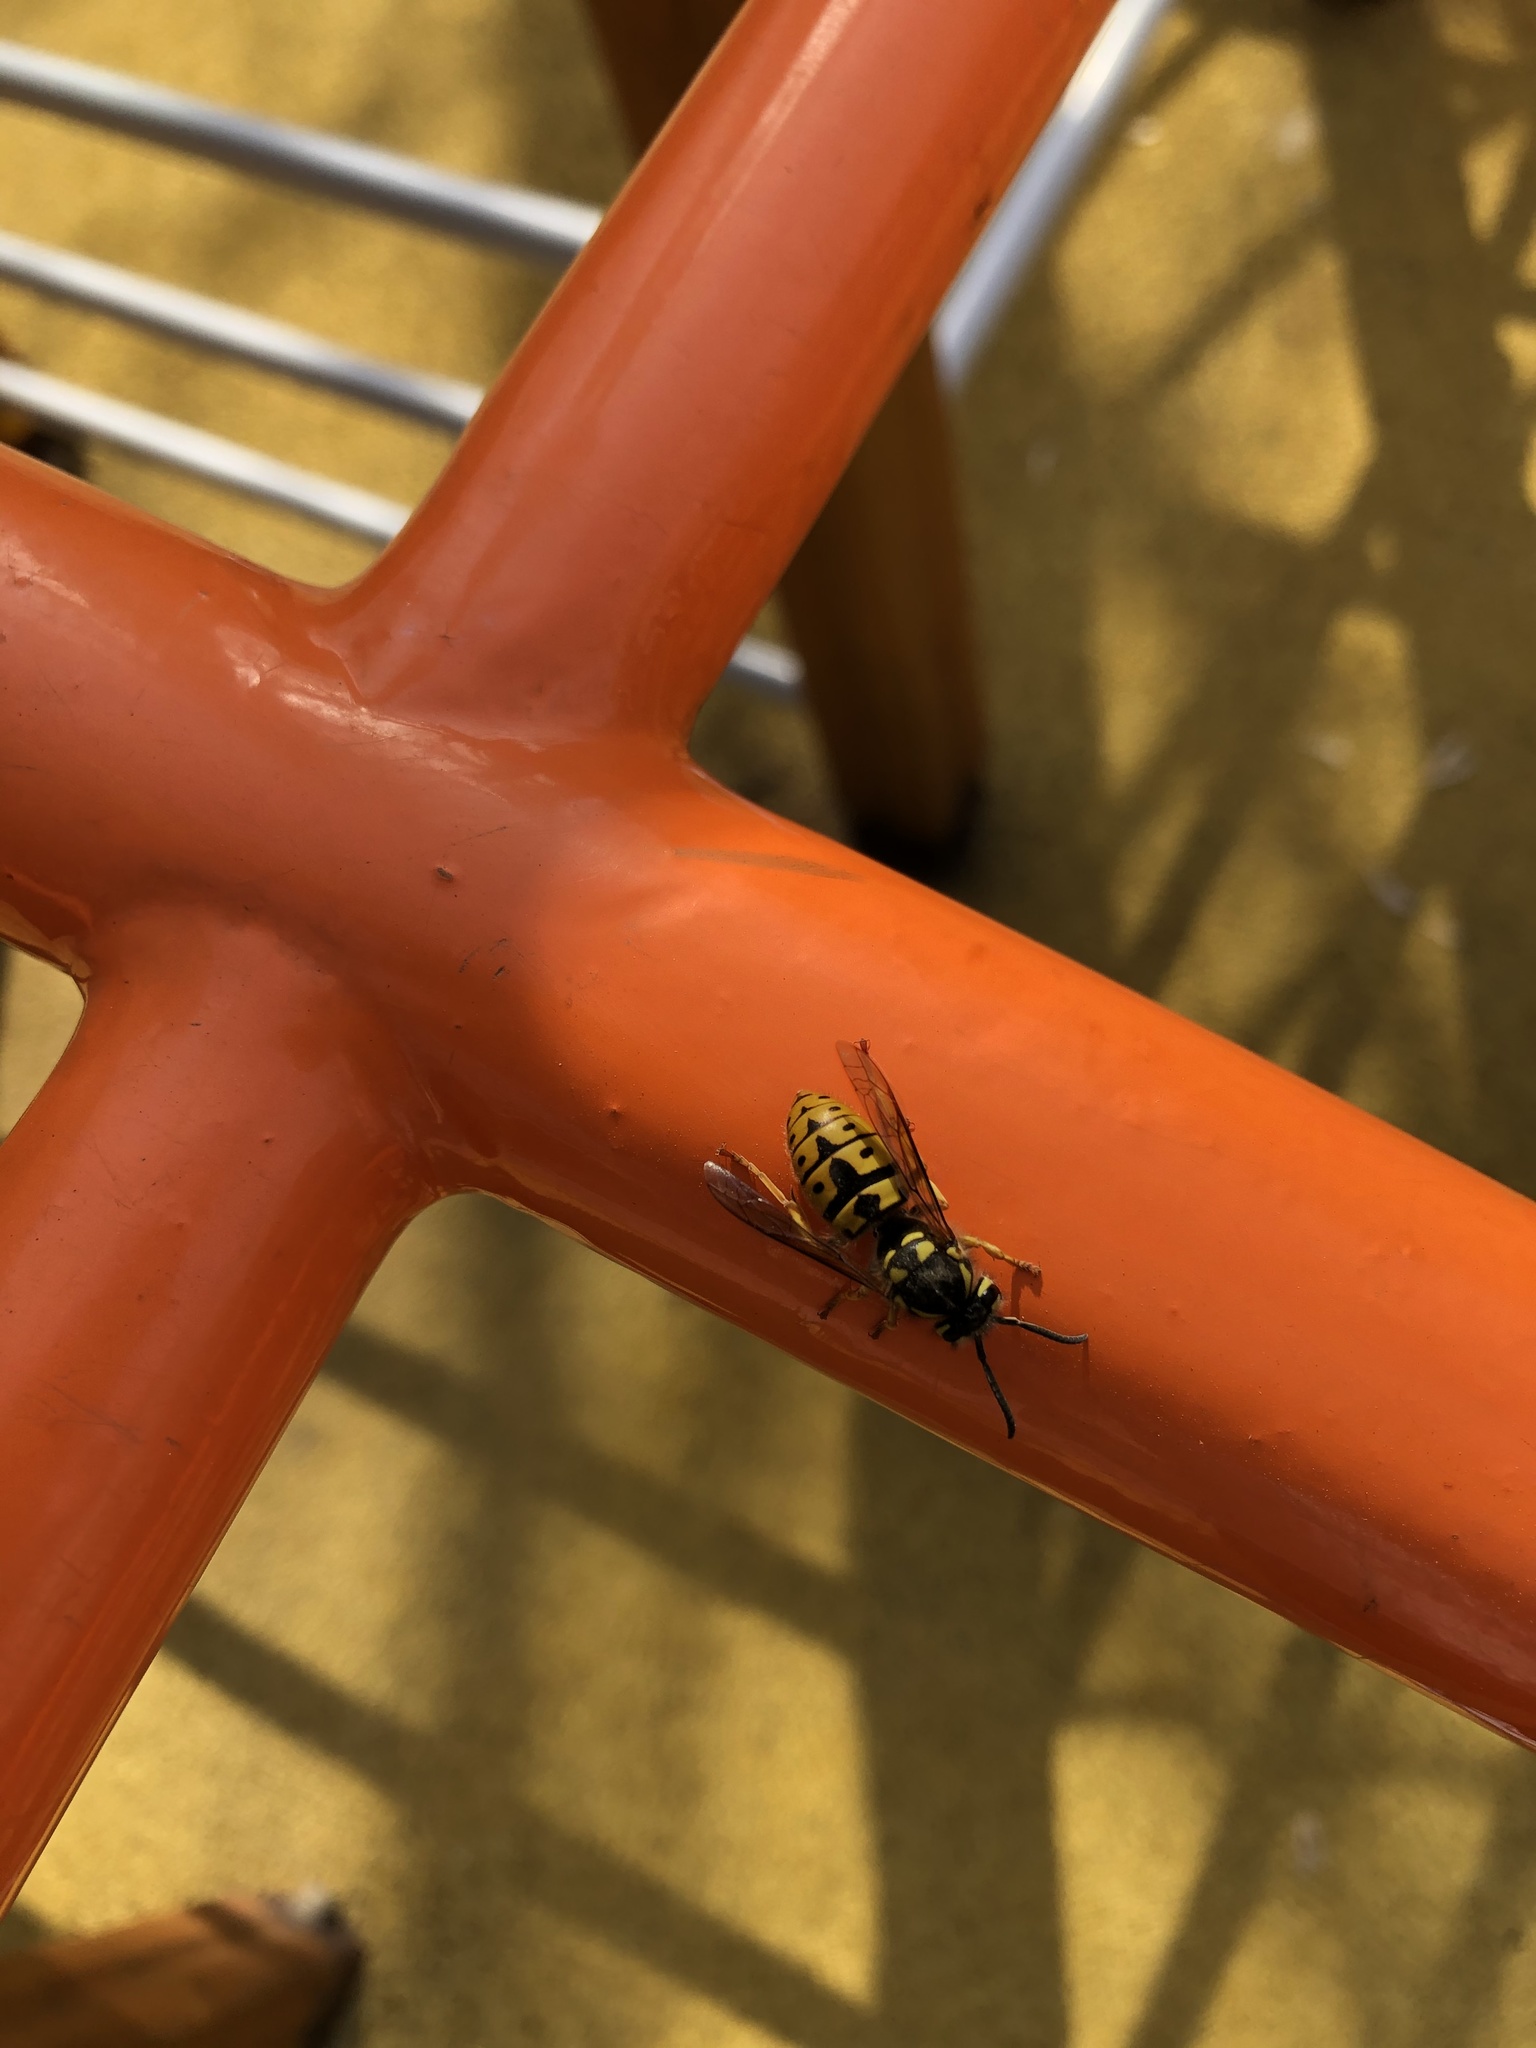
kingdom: Animalia
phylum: Arthropoda
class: Insecta
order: Hymenoptera
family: Vespidae
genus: Vespula
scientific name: Vespula germanica
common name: German wasp
